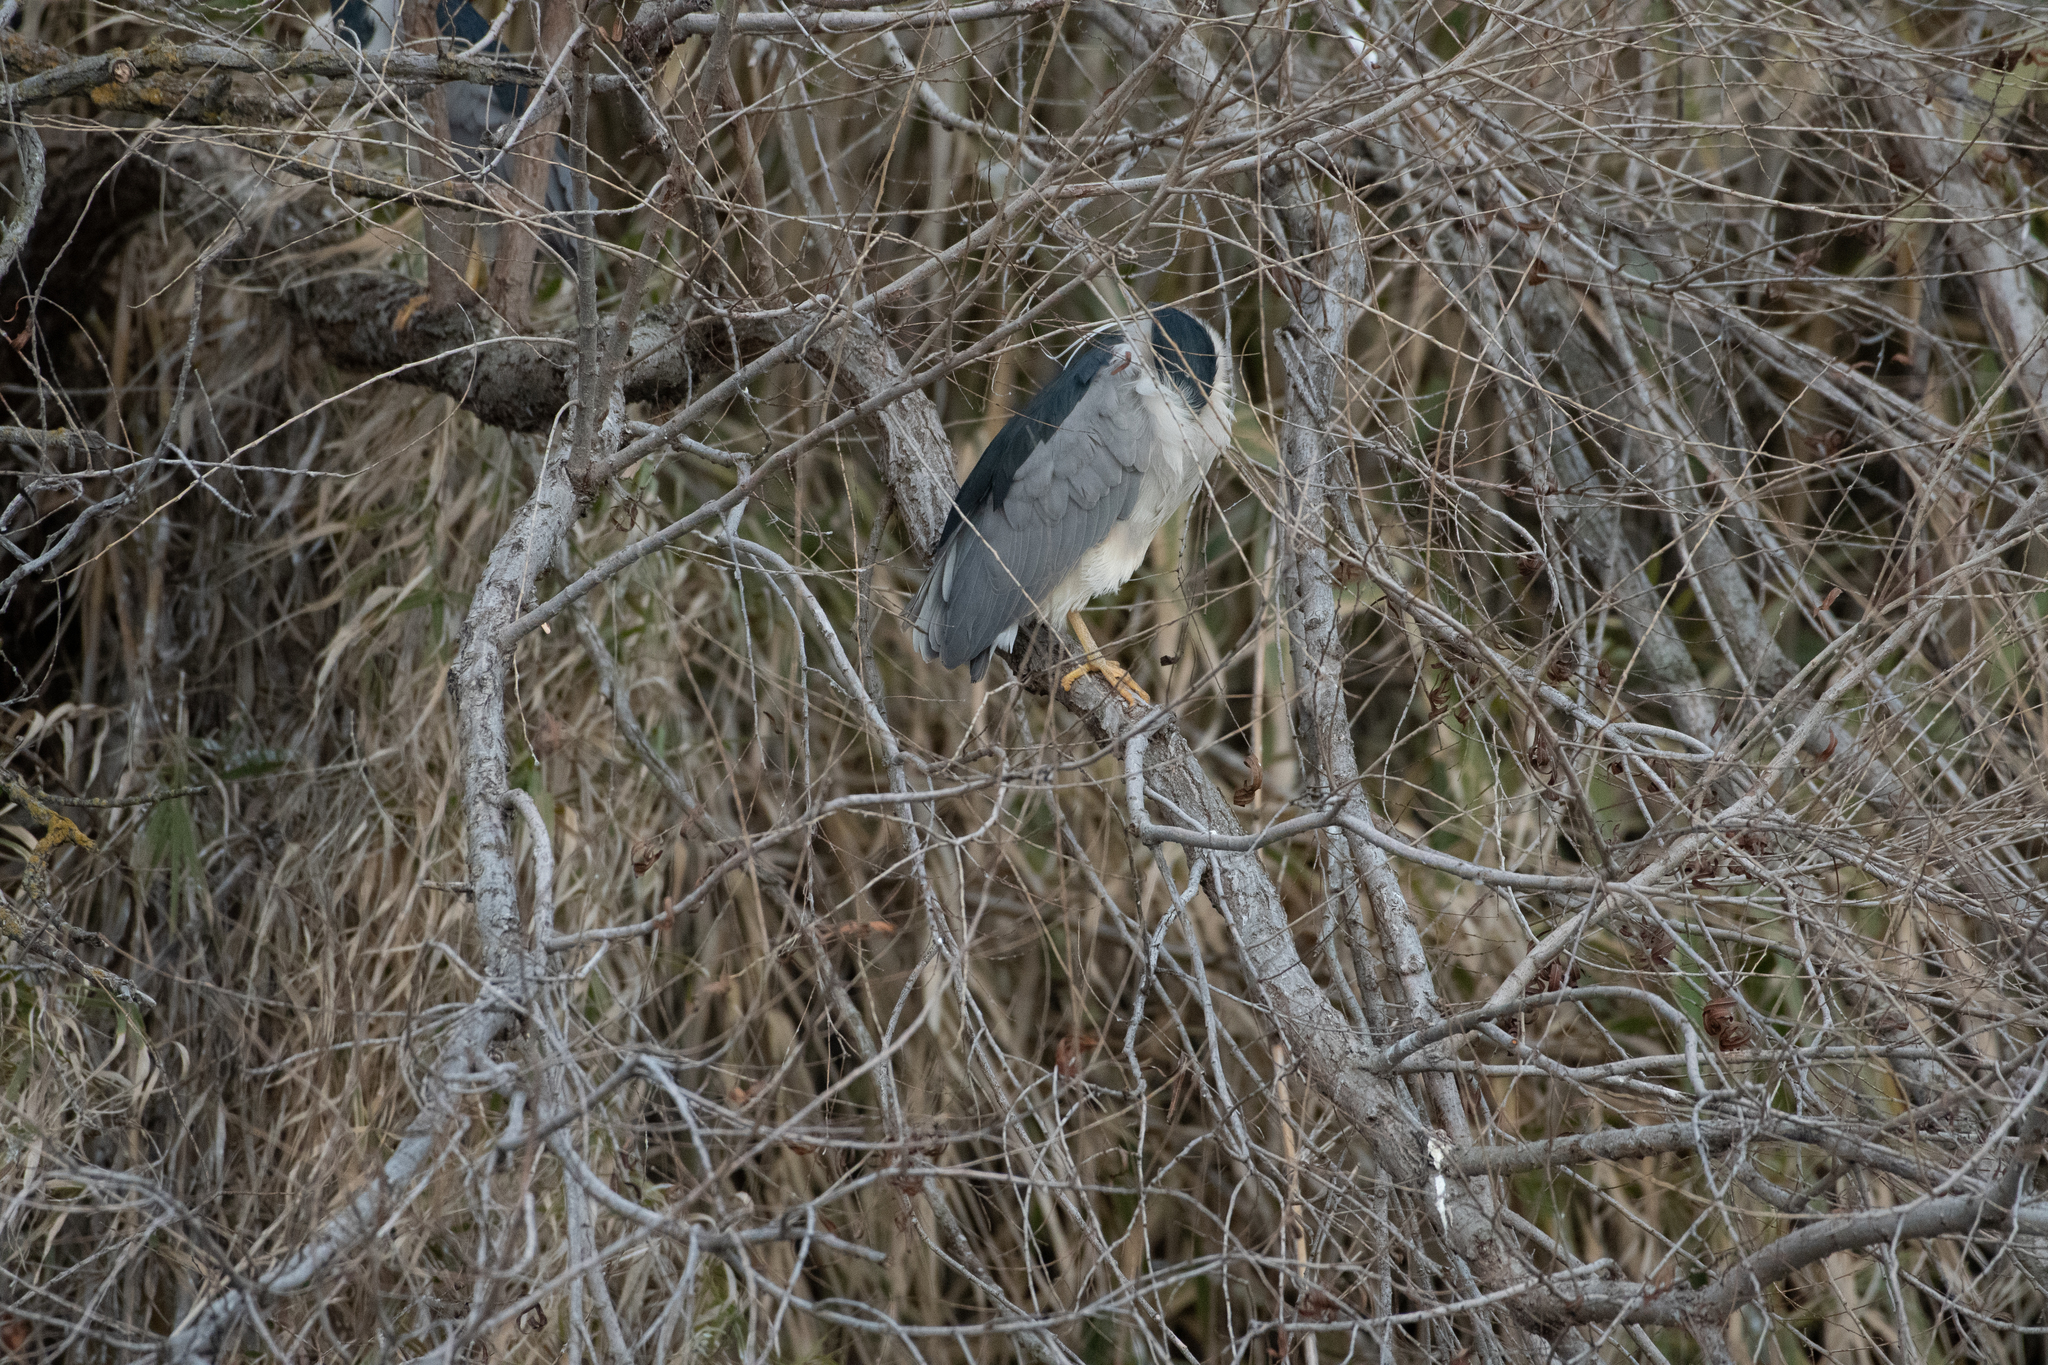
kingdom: Animalia
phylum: Chordata
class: Aves
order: Pelecaniformes
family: Ardeidae
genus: Nycticorax
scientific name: Nycticorax nycticorax
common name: Black-crowned night heron
